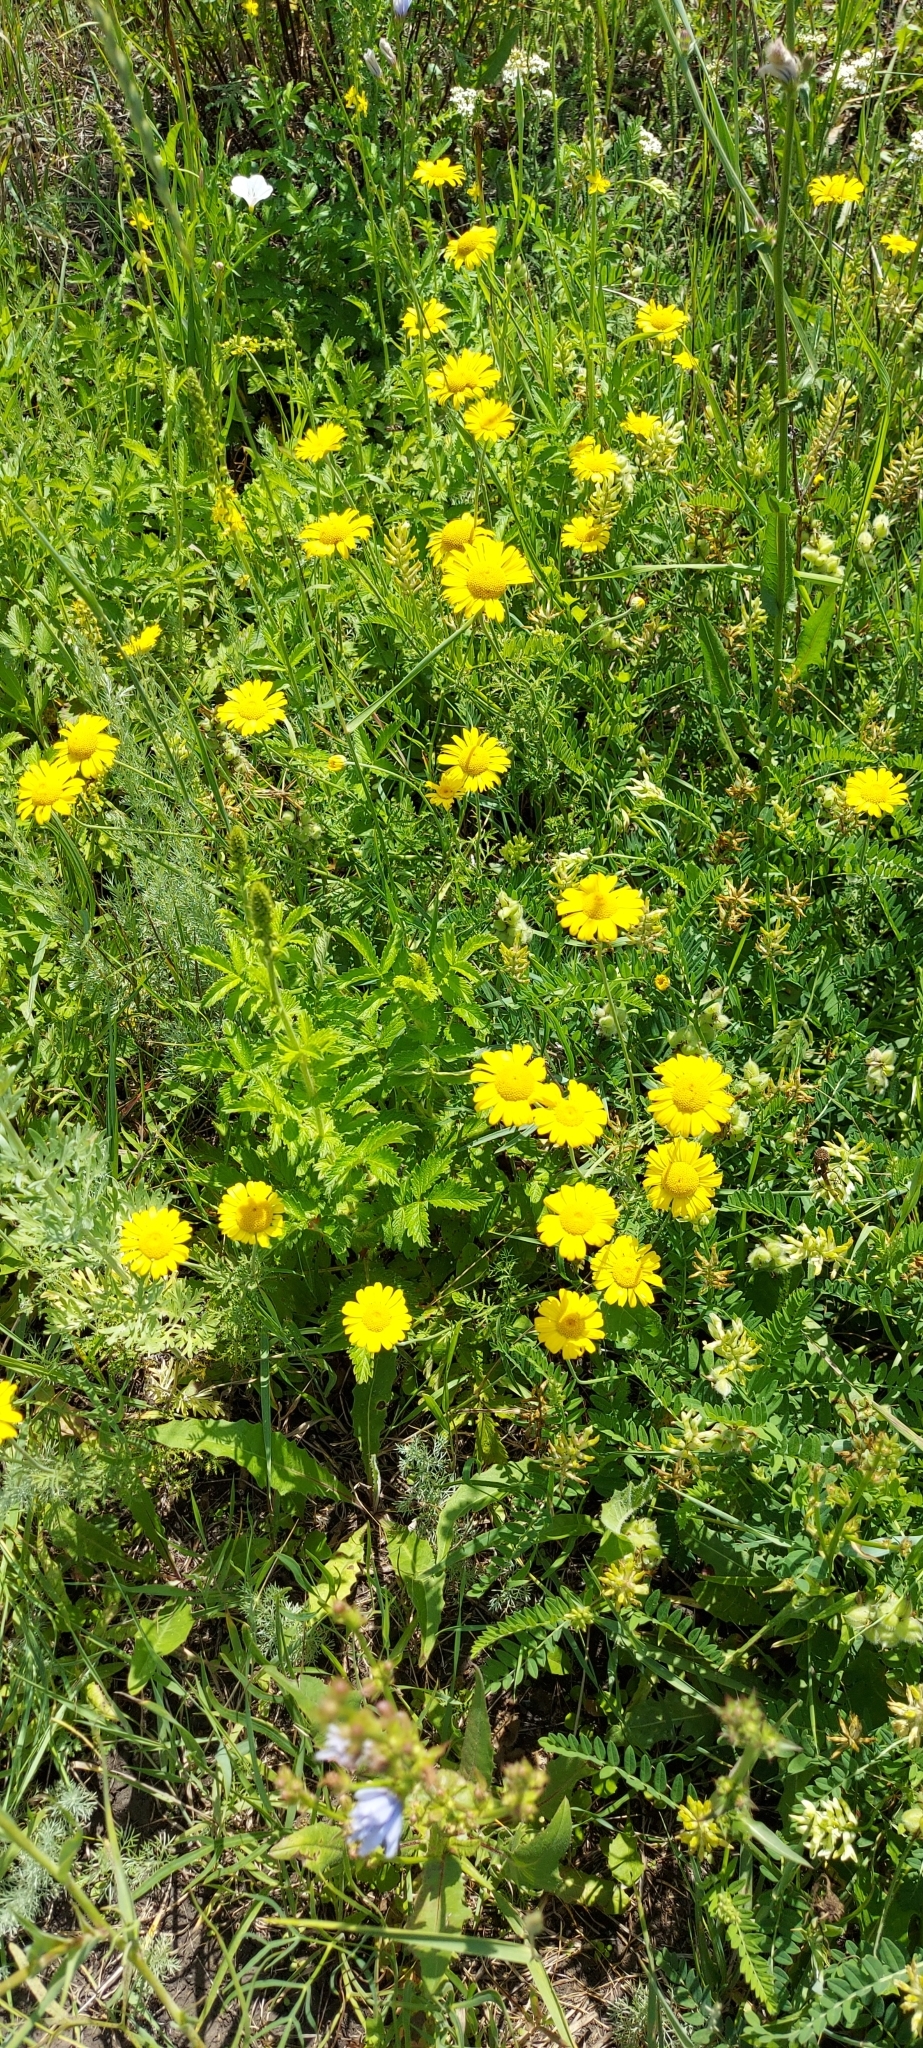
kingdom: Plantae
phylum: Tracheophyta
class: Magnoliopsida
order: Asterales
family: Asteraceae
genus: Cota
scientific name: Cota tinctoria
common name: Golden chamomile
